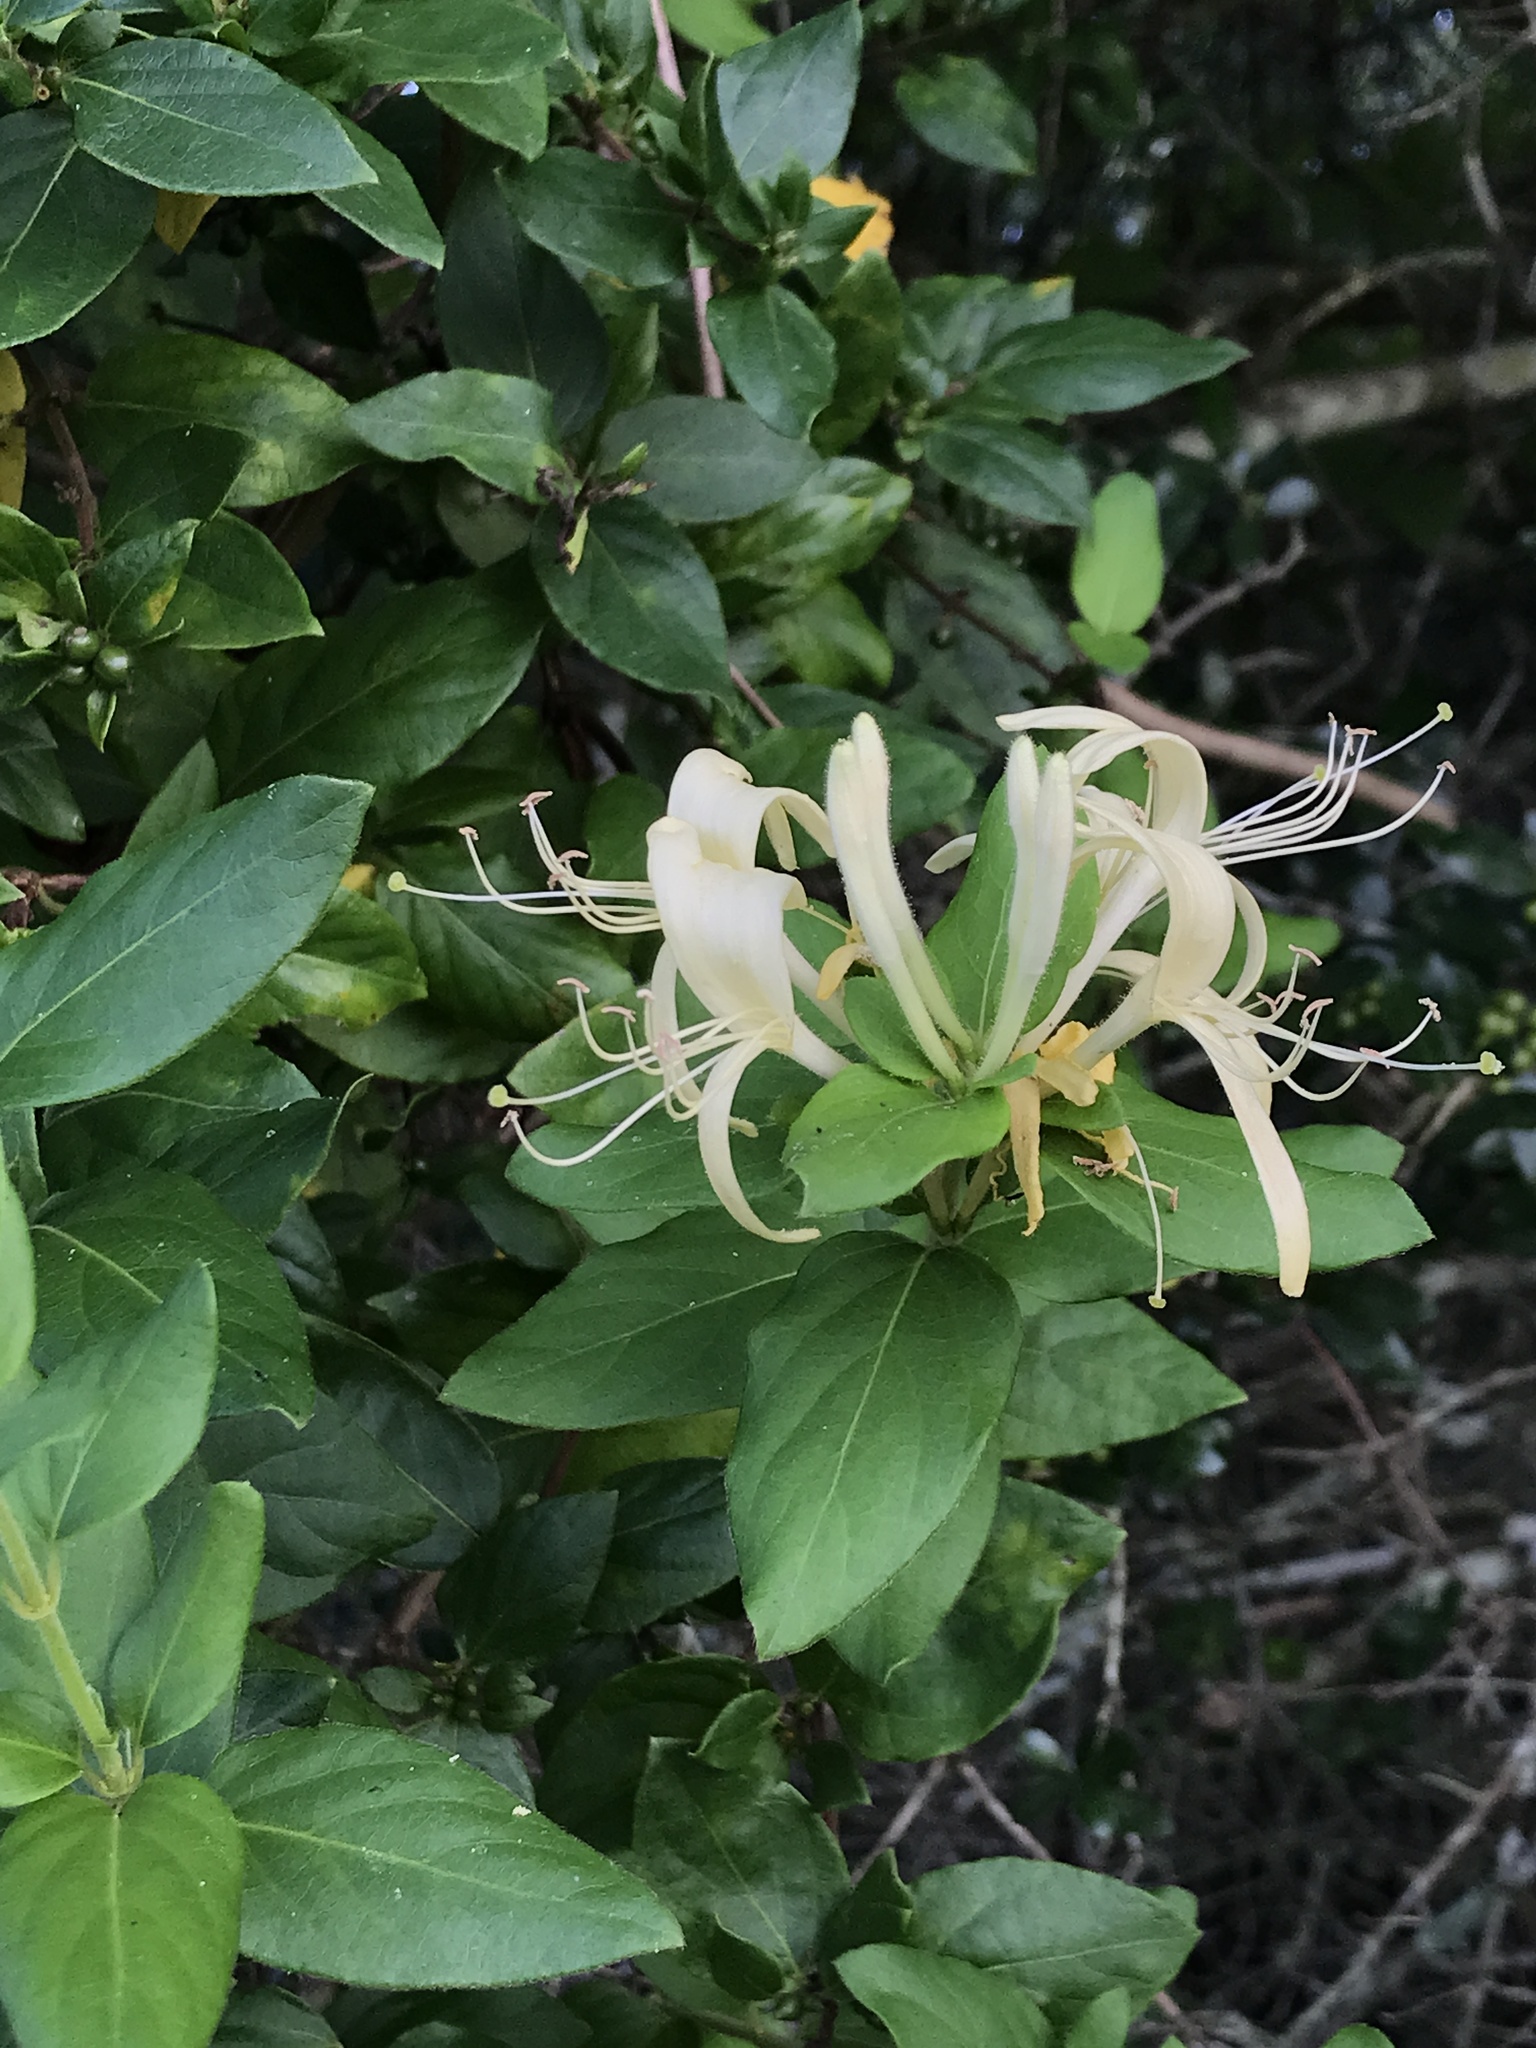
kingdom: Plantae
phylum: Tracheophyta
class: Magnoliopsida
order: Dipsacales
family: Caprifoliaceae
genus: Lonicera
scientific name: Lonicera japonica
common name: Japanese honeysuckle
